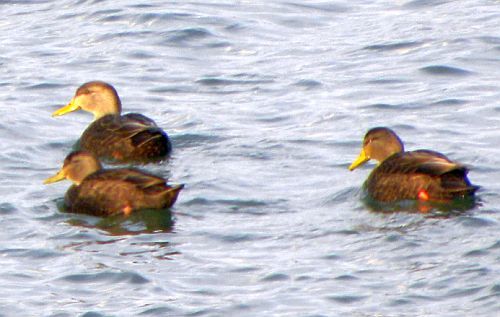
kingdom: Animalia
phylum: Chordata
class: Aves
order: Anseriformes
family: Anatidae
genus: Anas
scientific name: Anas rubripes
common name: American black duck
